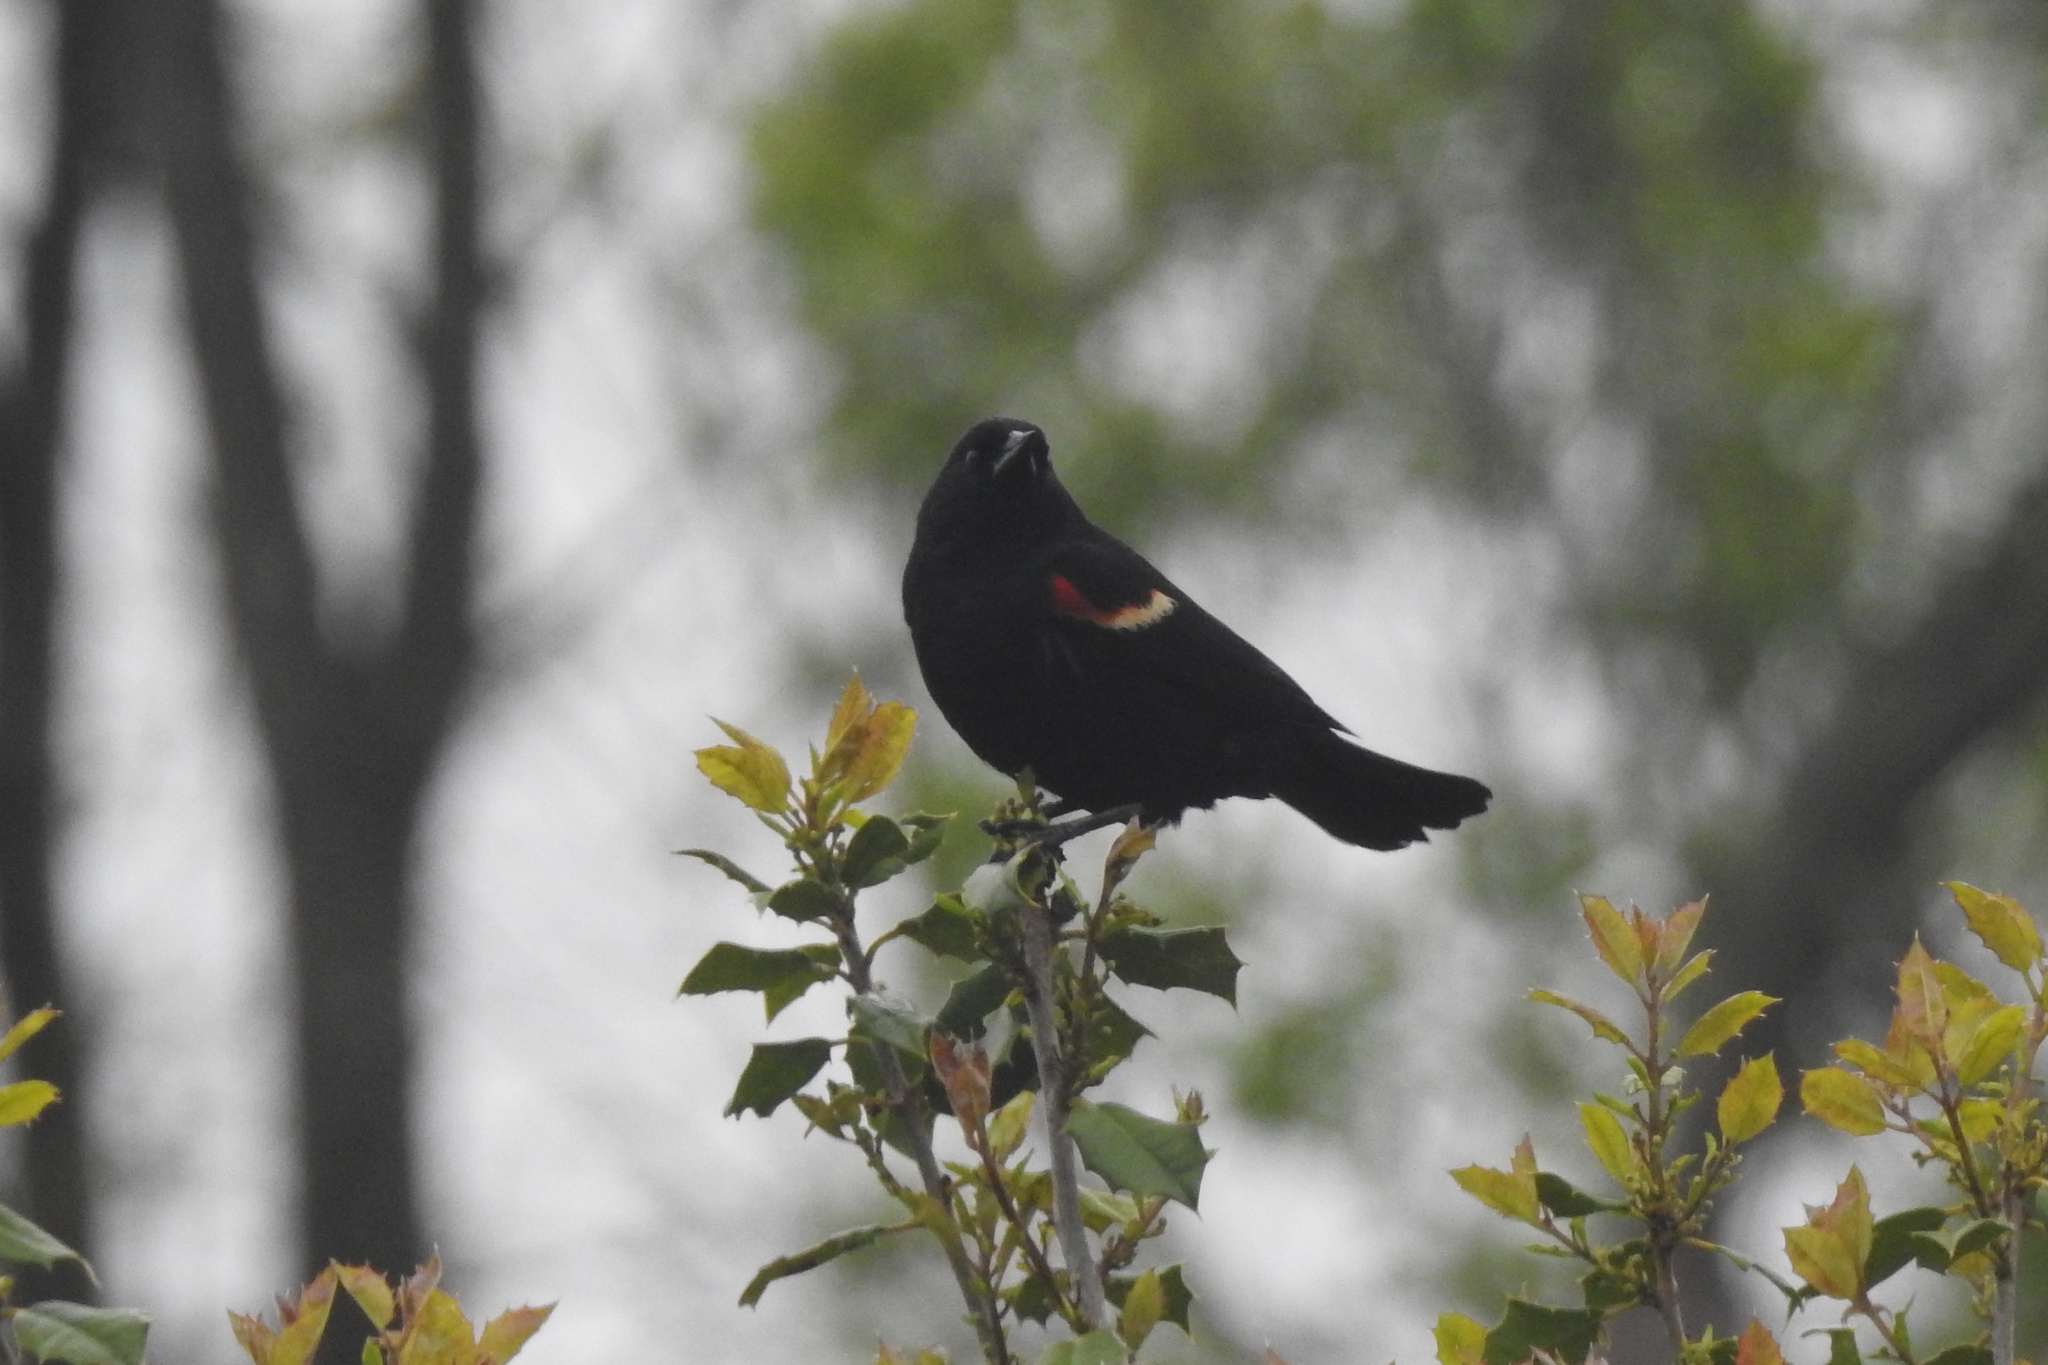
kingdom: Animalia
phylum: Chordata
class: Aves
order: Passeriformes
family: Icteridae
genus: Agelaius
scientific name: Agelaius phoeniceus
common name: Red-winged blackbird
